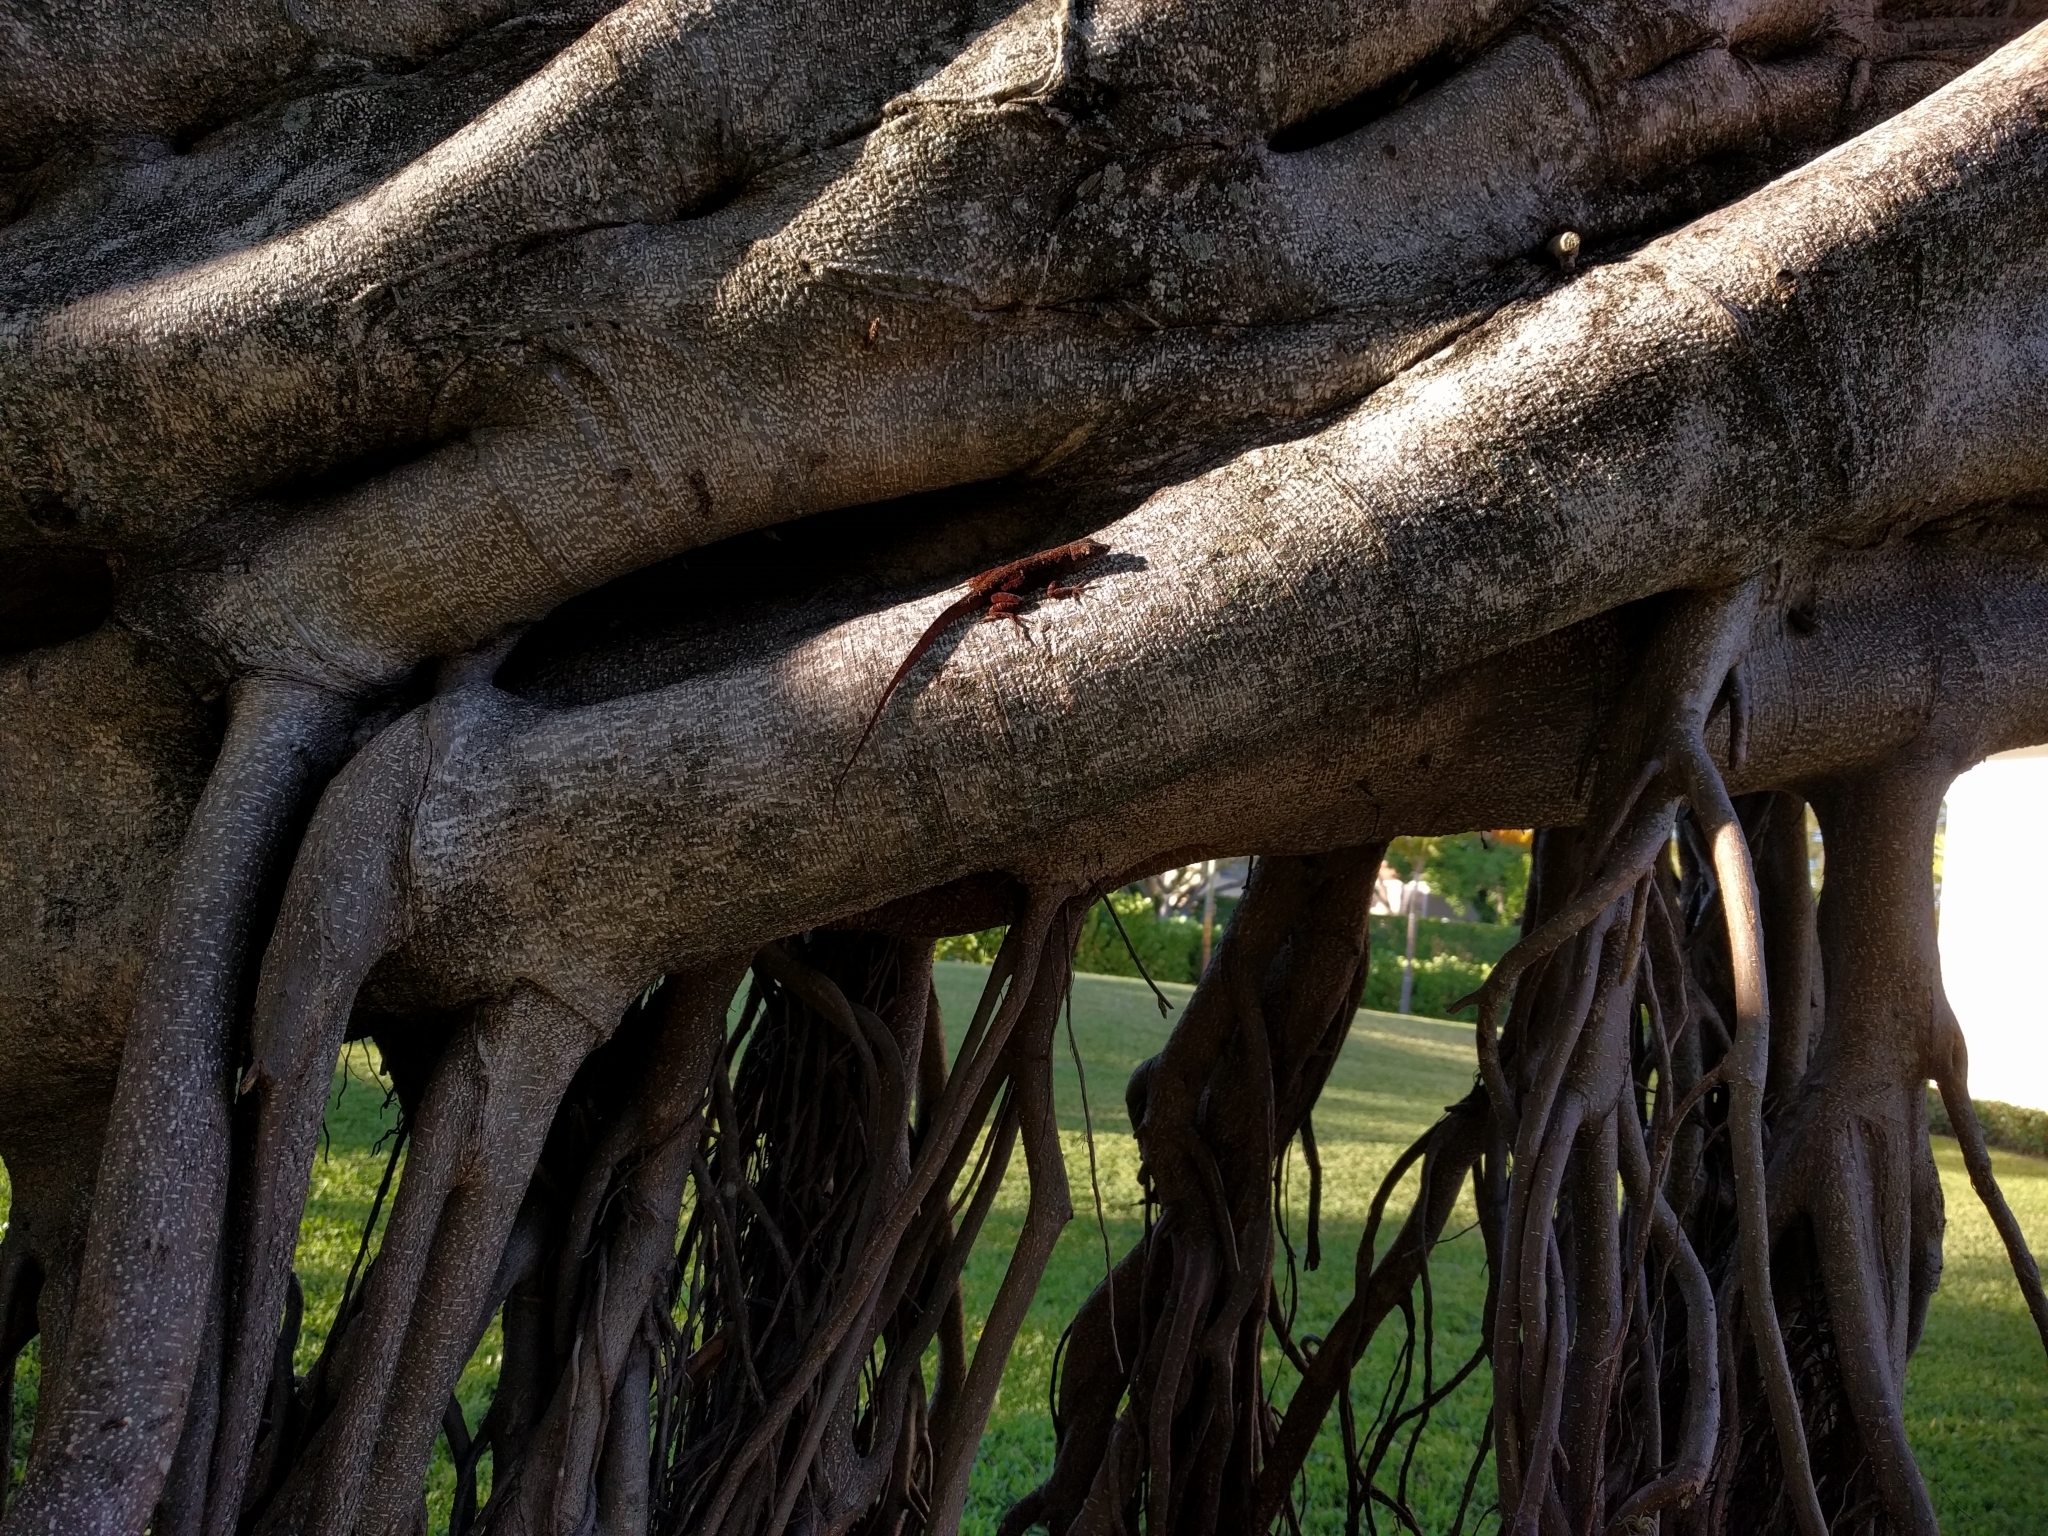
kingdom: Animalia
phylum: Chordata
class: Squamata
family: Dactyloidae
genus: Anolis
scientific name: Anolis sagrei
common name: Brown anole
